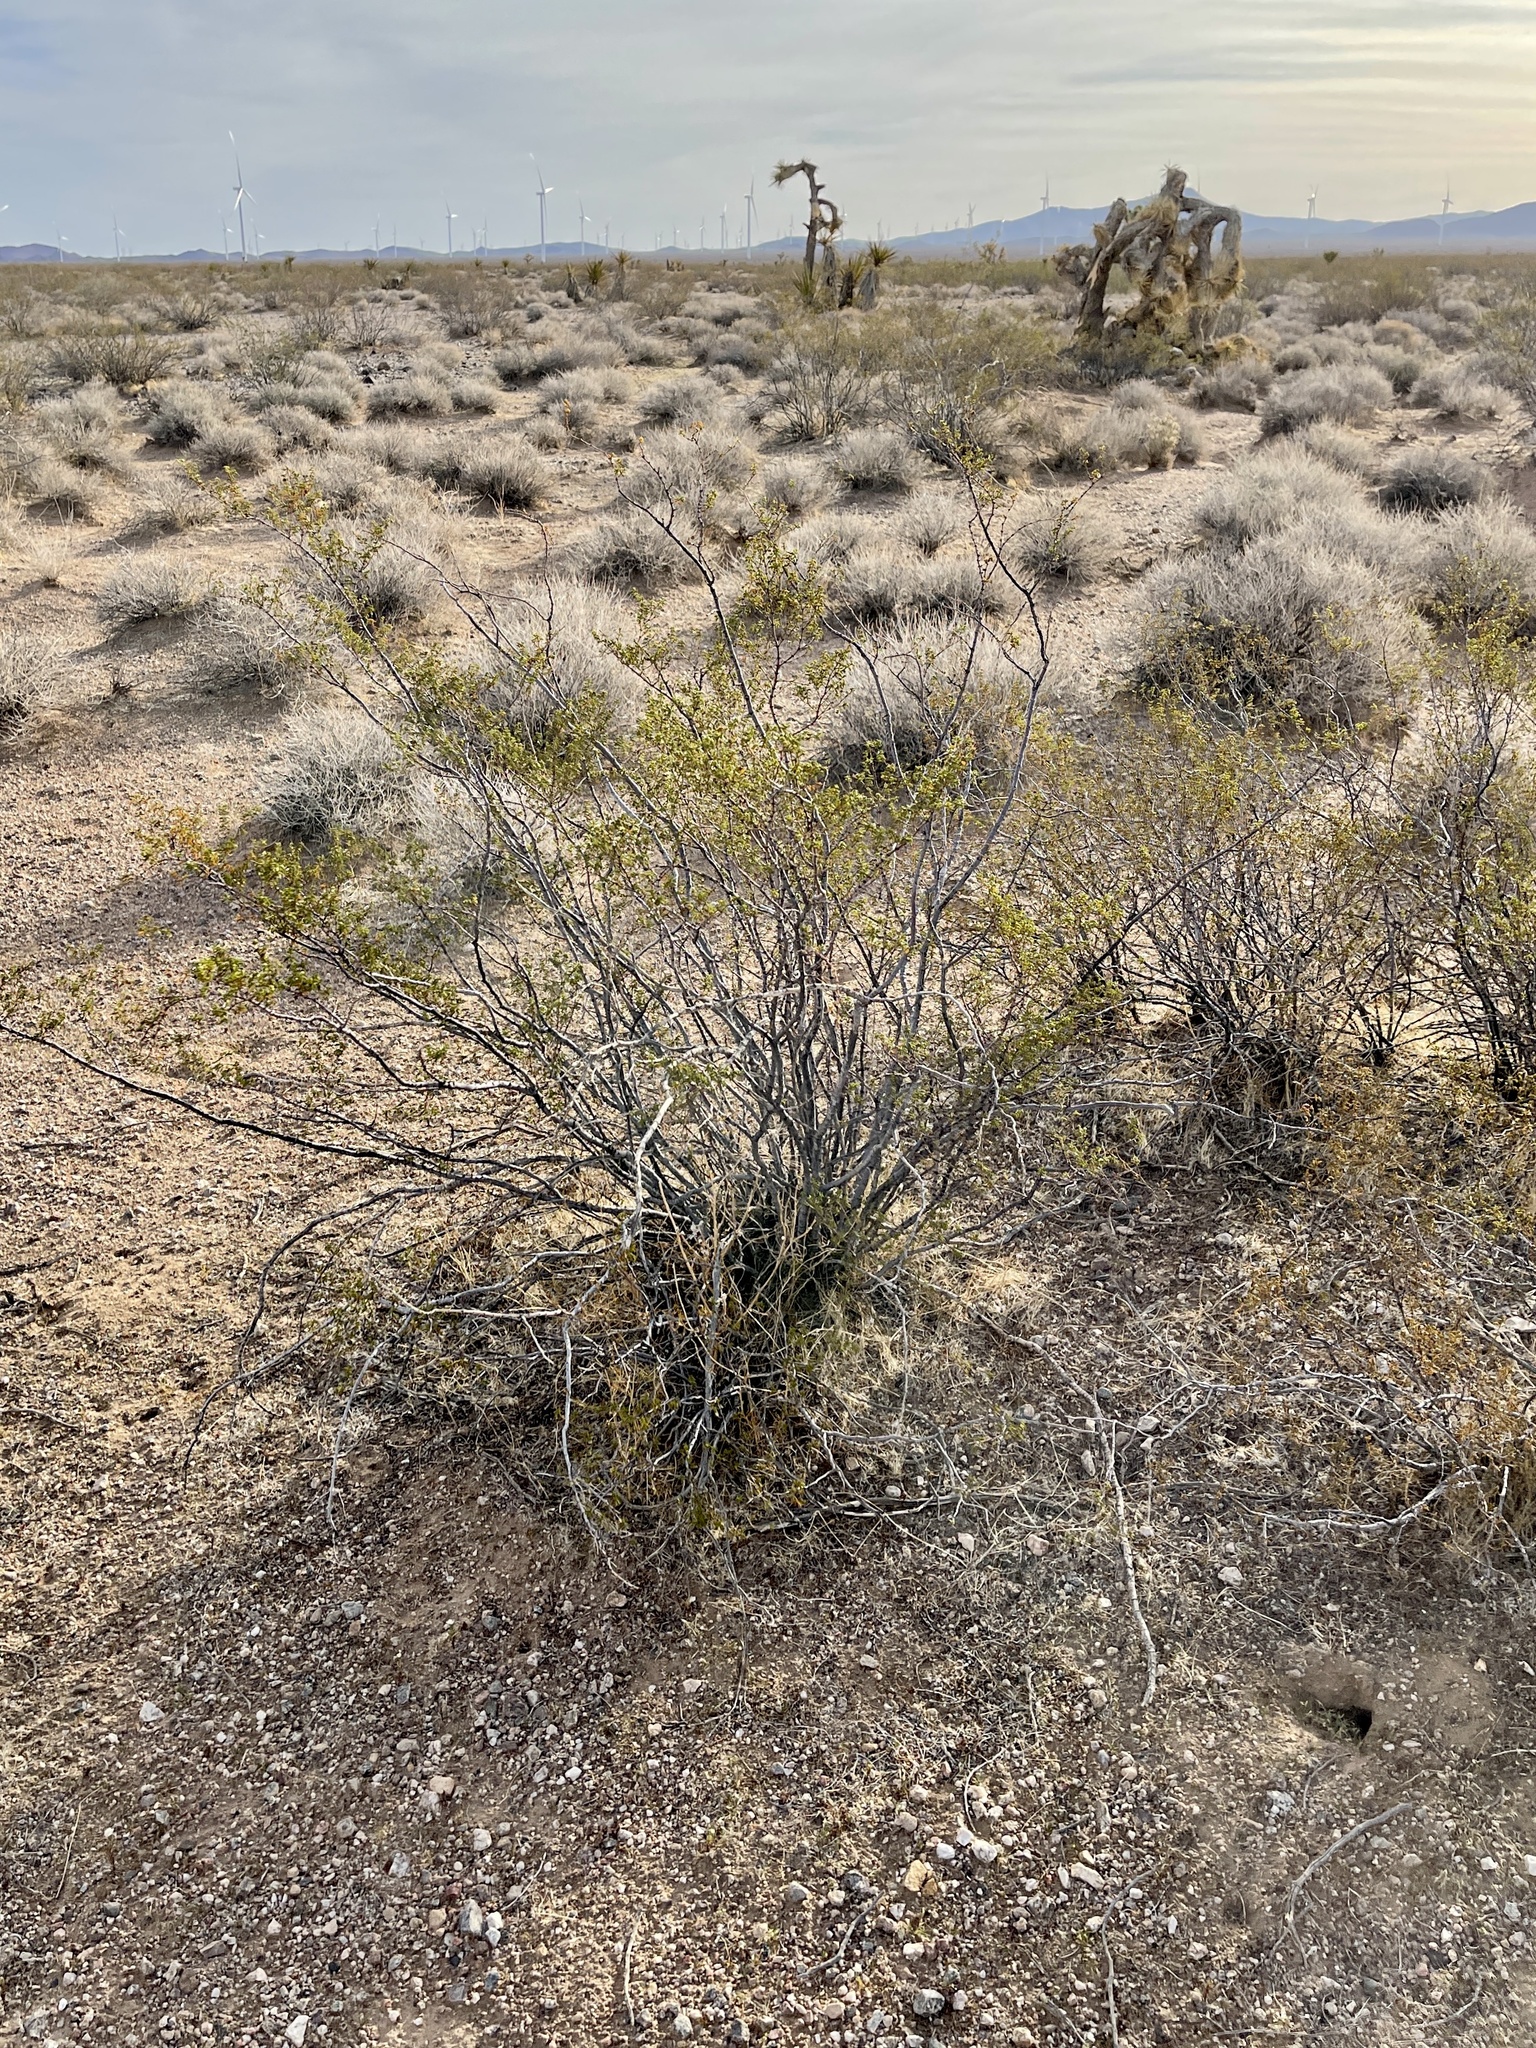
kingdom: Plantae
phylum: Tracheophyta
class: Magnoliopsida
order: Zygophyllales
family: Zygophyllaceae
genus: Larrea
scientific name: Larrea tridentata
